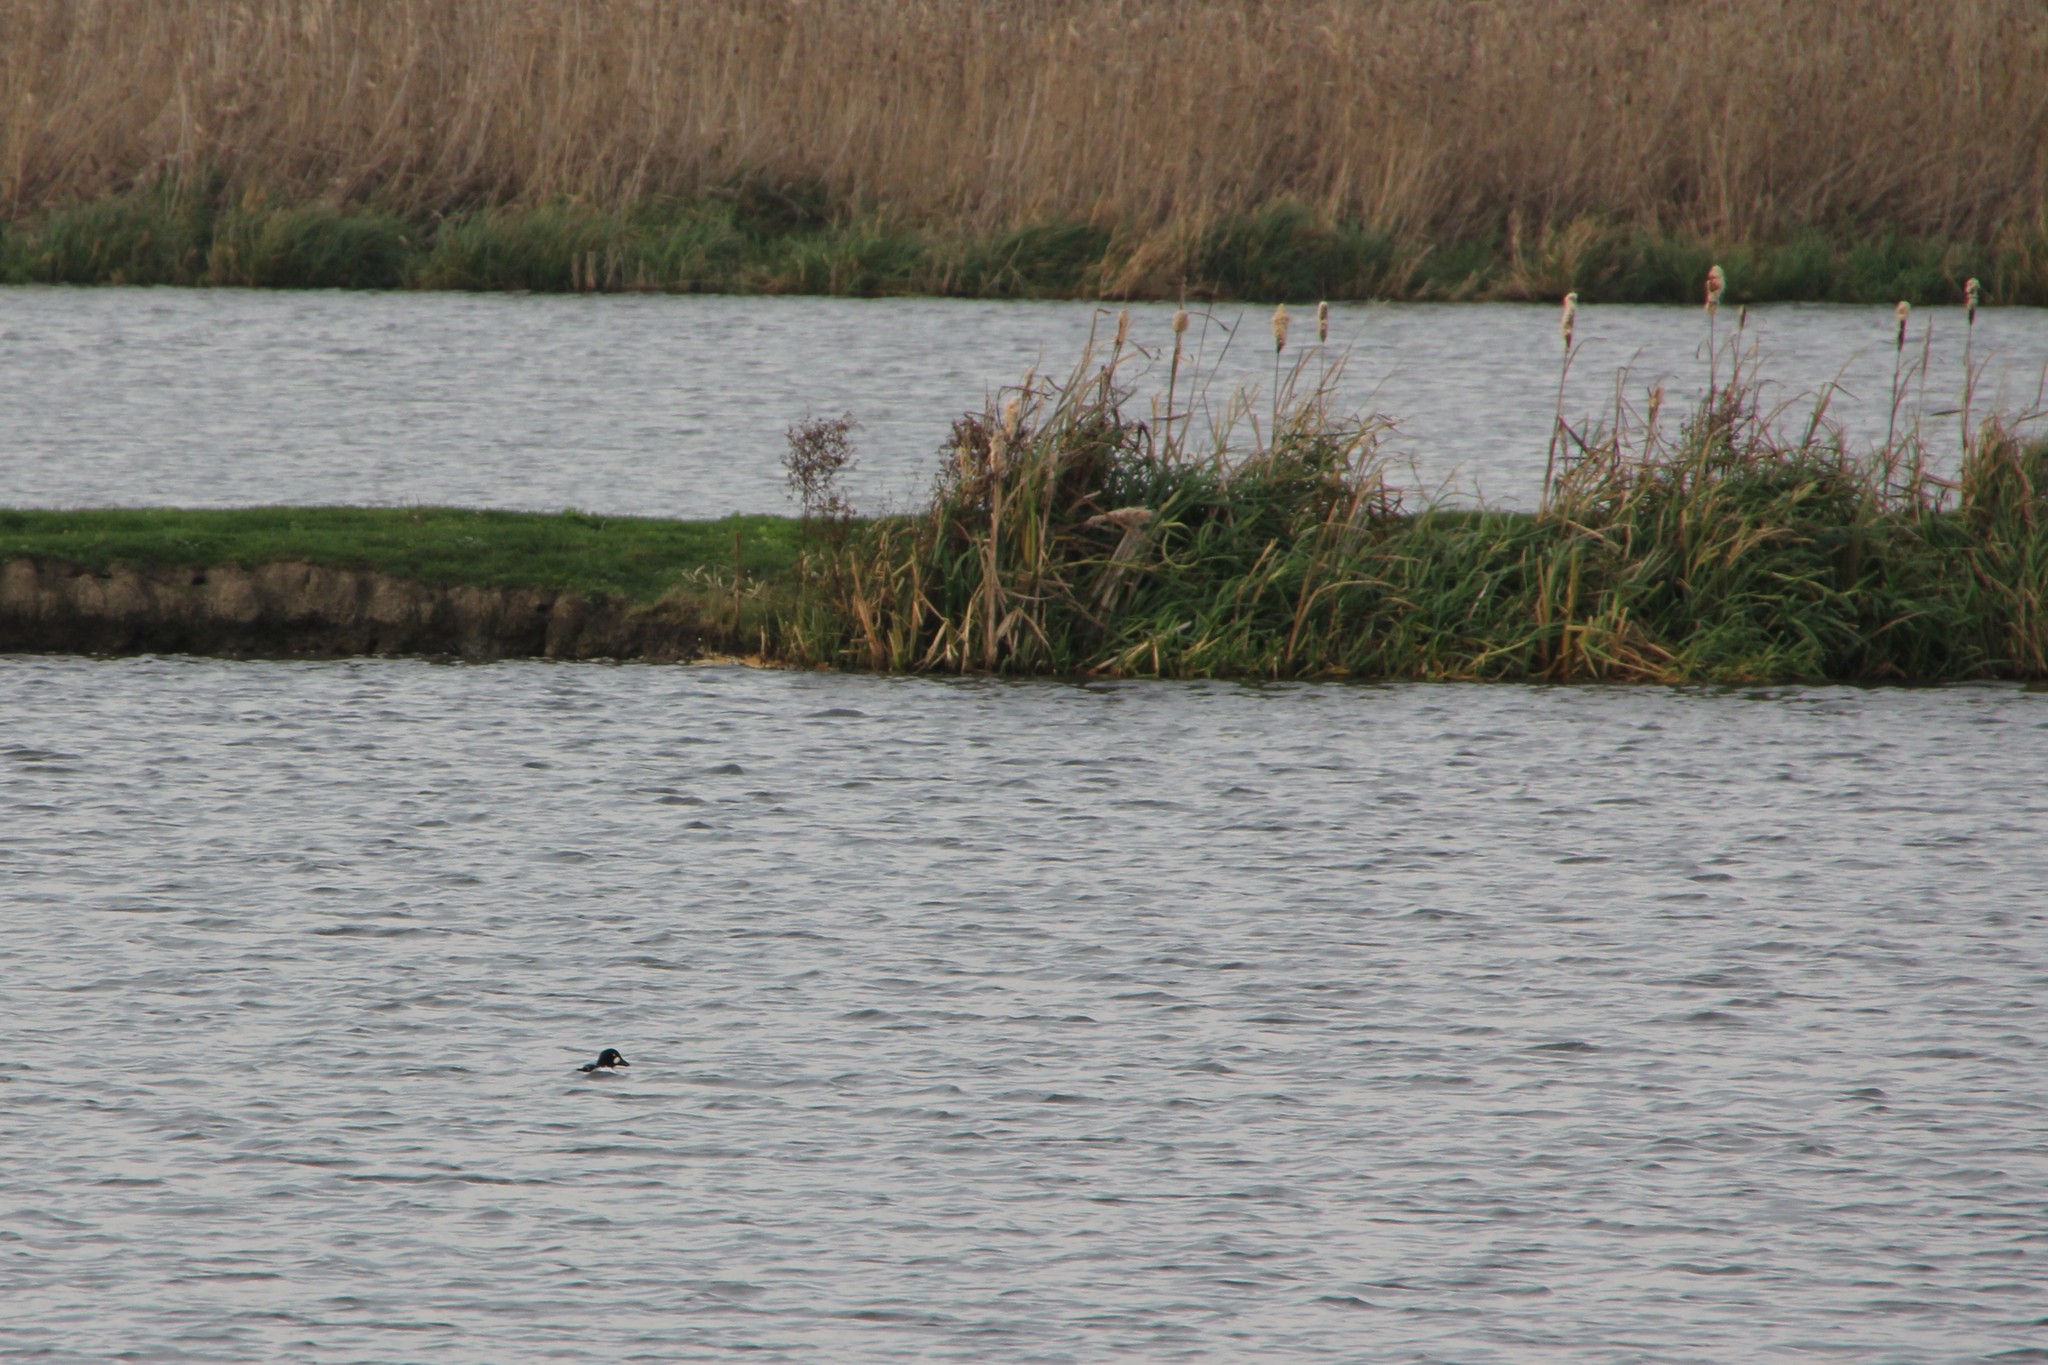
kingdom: Animalia
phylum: Chordata
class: Aves
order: Anseriformes
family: Anatidae
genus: Bucephala
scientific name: Bucephala clangula
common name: Common goldeneye
